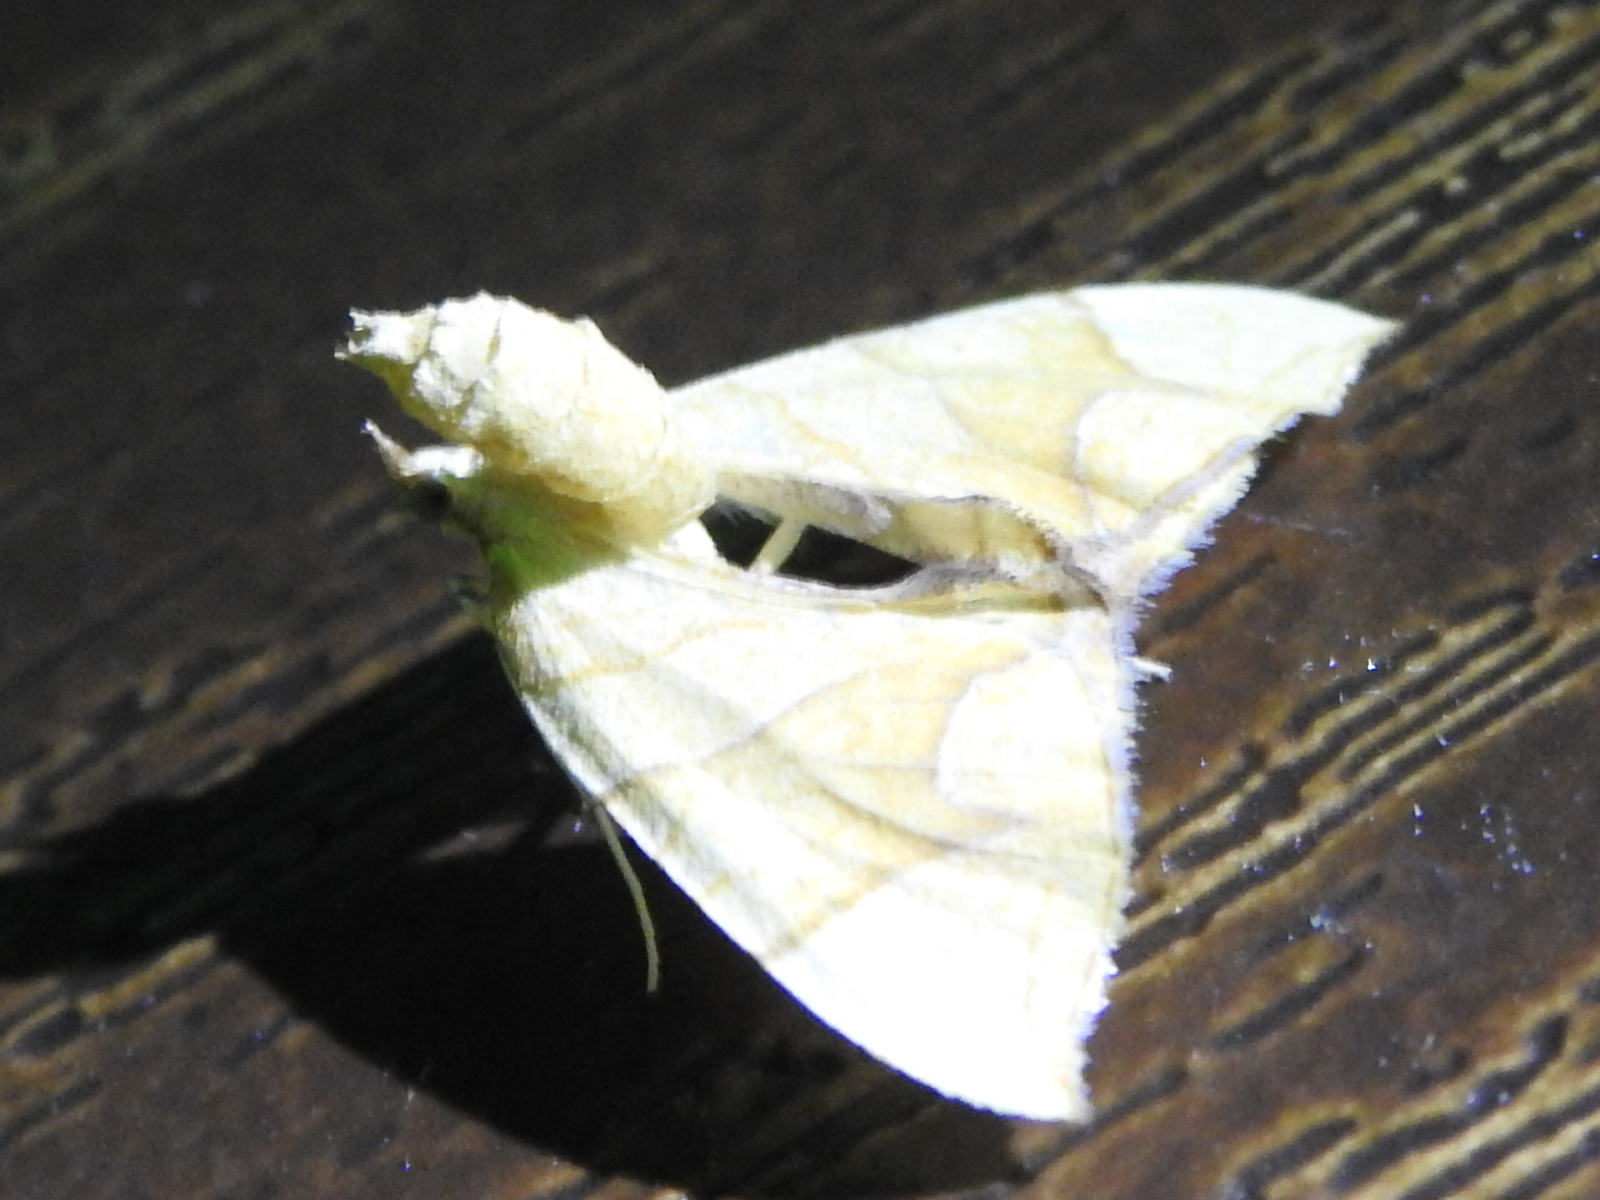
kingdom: Animalia
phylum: Arthropoda
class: Insecta
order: Lepidoptera
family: Geometridae
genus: Eulithis
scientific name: Eulithis
